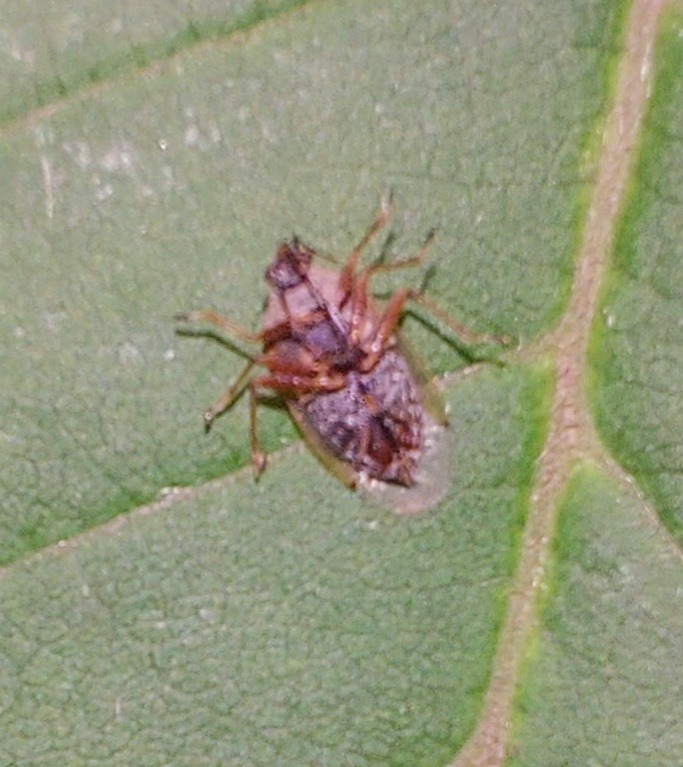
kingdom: Animalia
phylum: Arthropoda
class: Insecta
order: Hemiptera
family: Lygaeidae
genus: Kleidocerys
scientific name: Kleidocerys resedae
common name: Birch catkin bug
